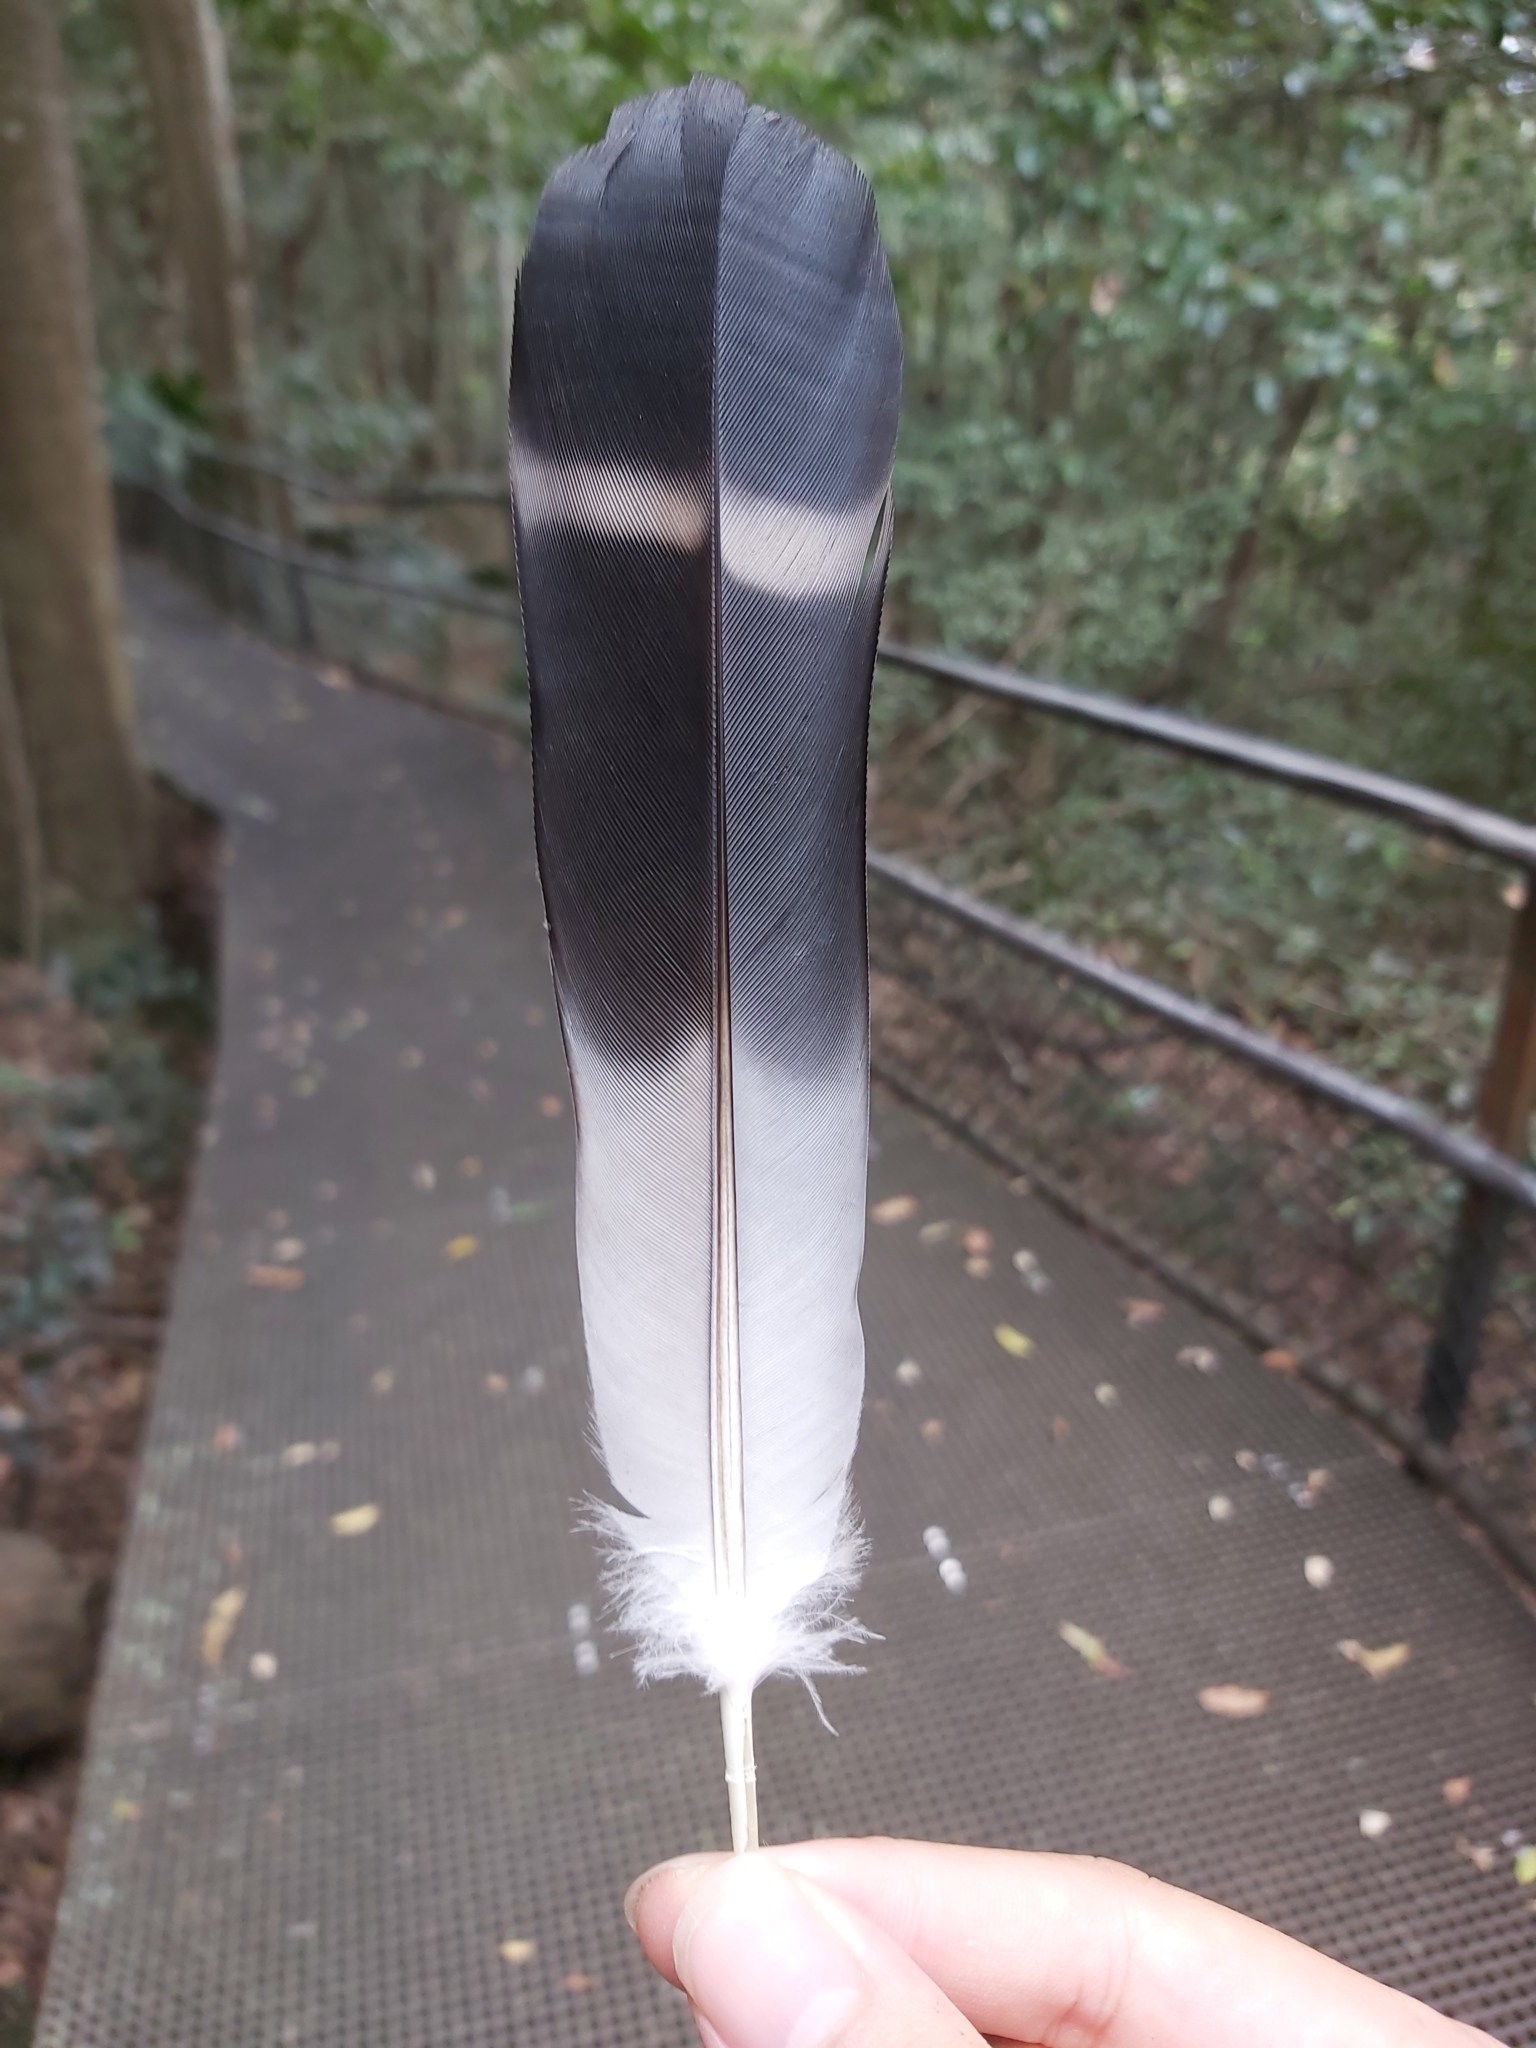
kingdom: Animalia
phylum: Chordata
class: Aves
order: Columbiformes
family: Columbidae
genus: Lopholaimus
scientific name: Lopholaimus antarcticus
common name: Topknot pigeon
